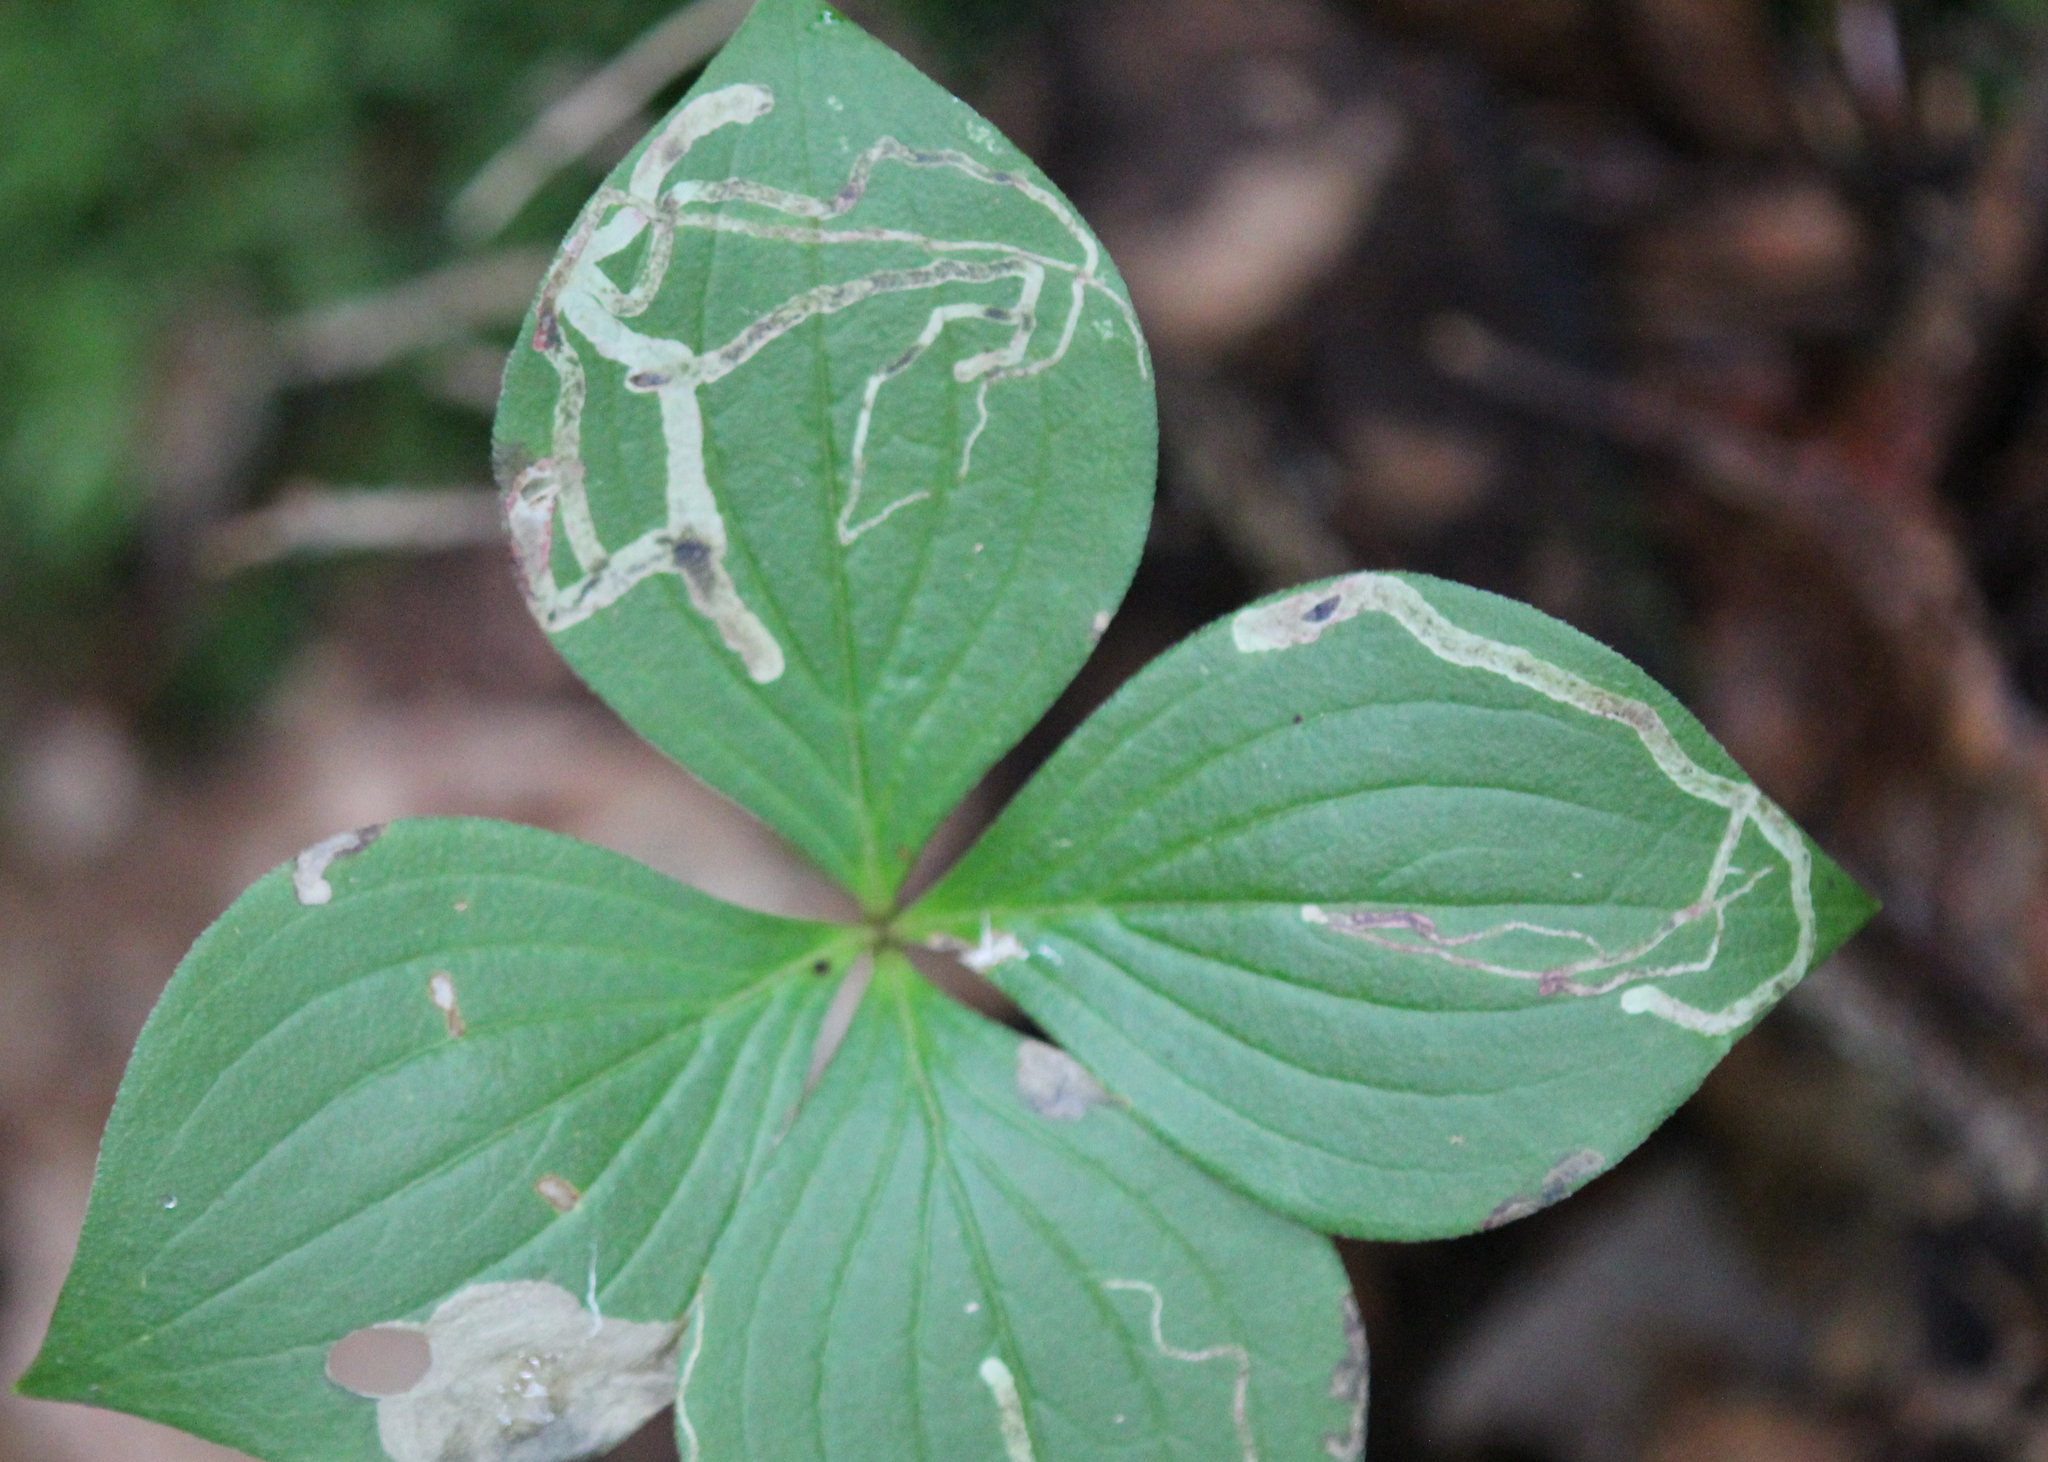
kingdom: Animalia
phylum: Arthropoda
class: Insecta
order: Diptera
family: Agromyzidae
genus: Phytomyza
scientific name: Phytomyza agromyzina
